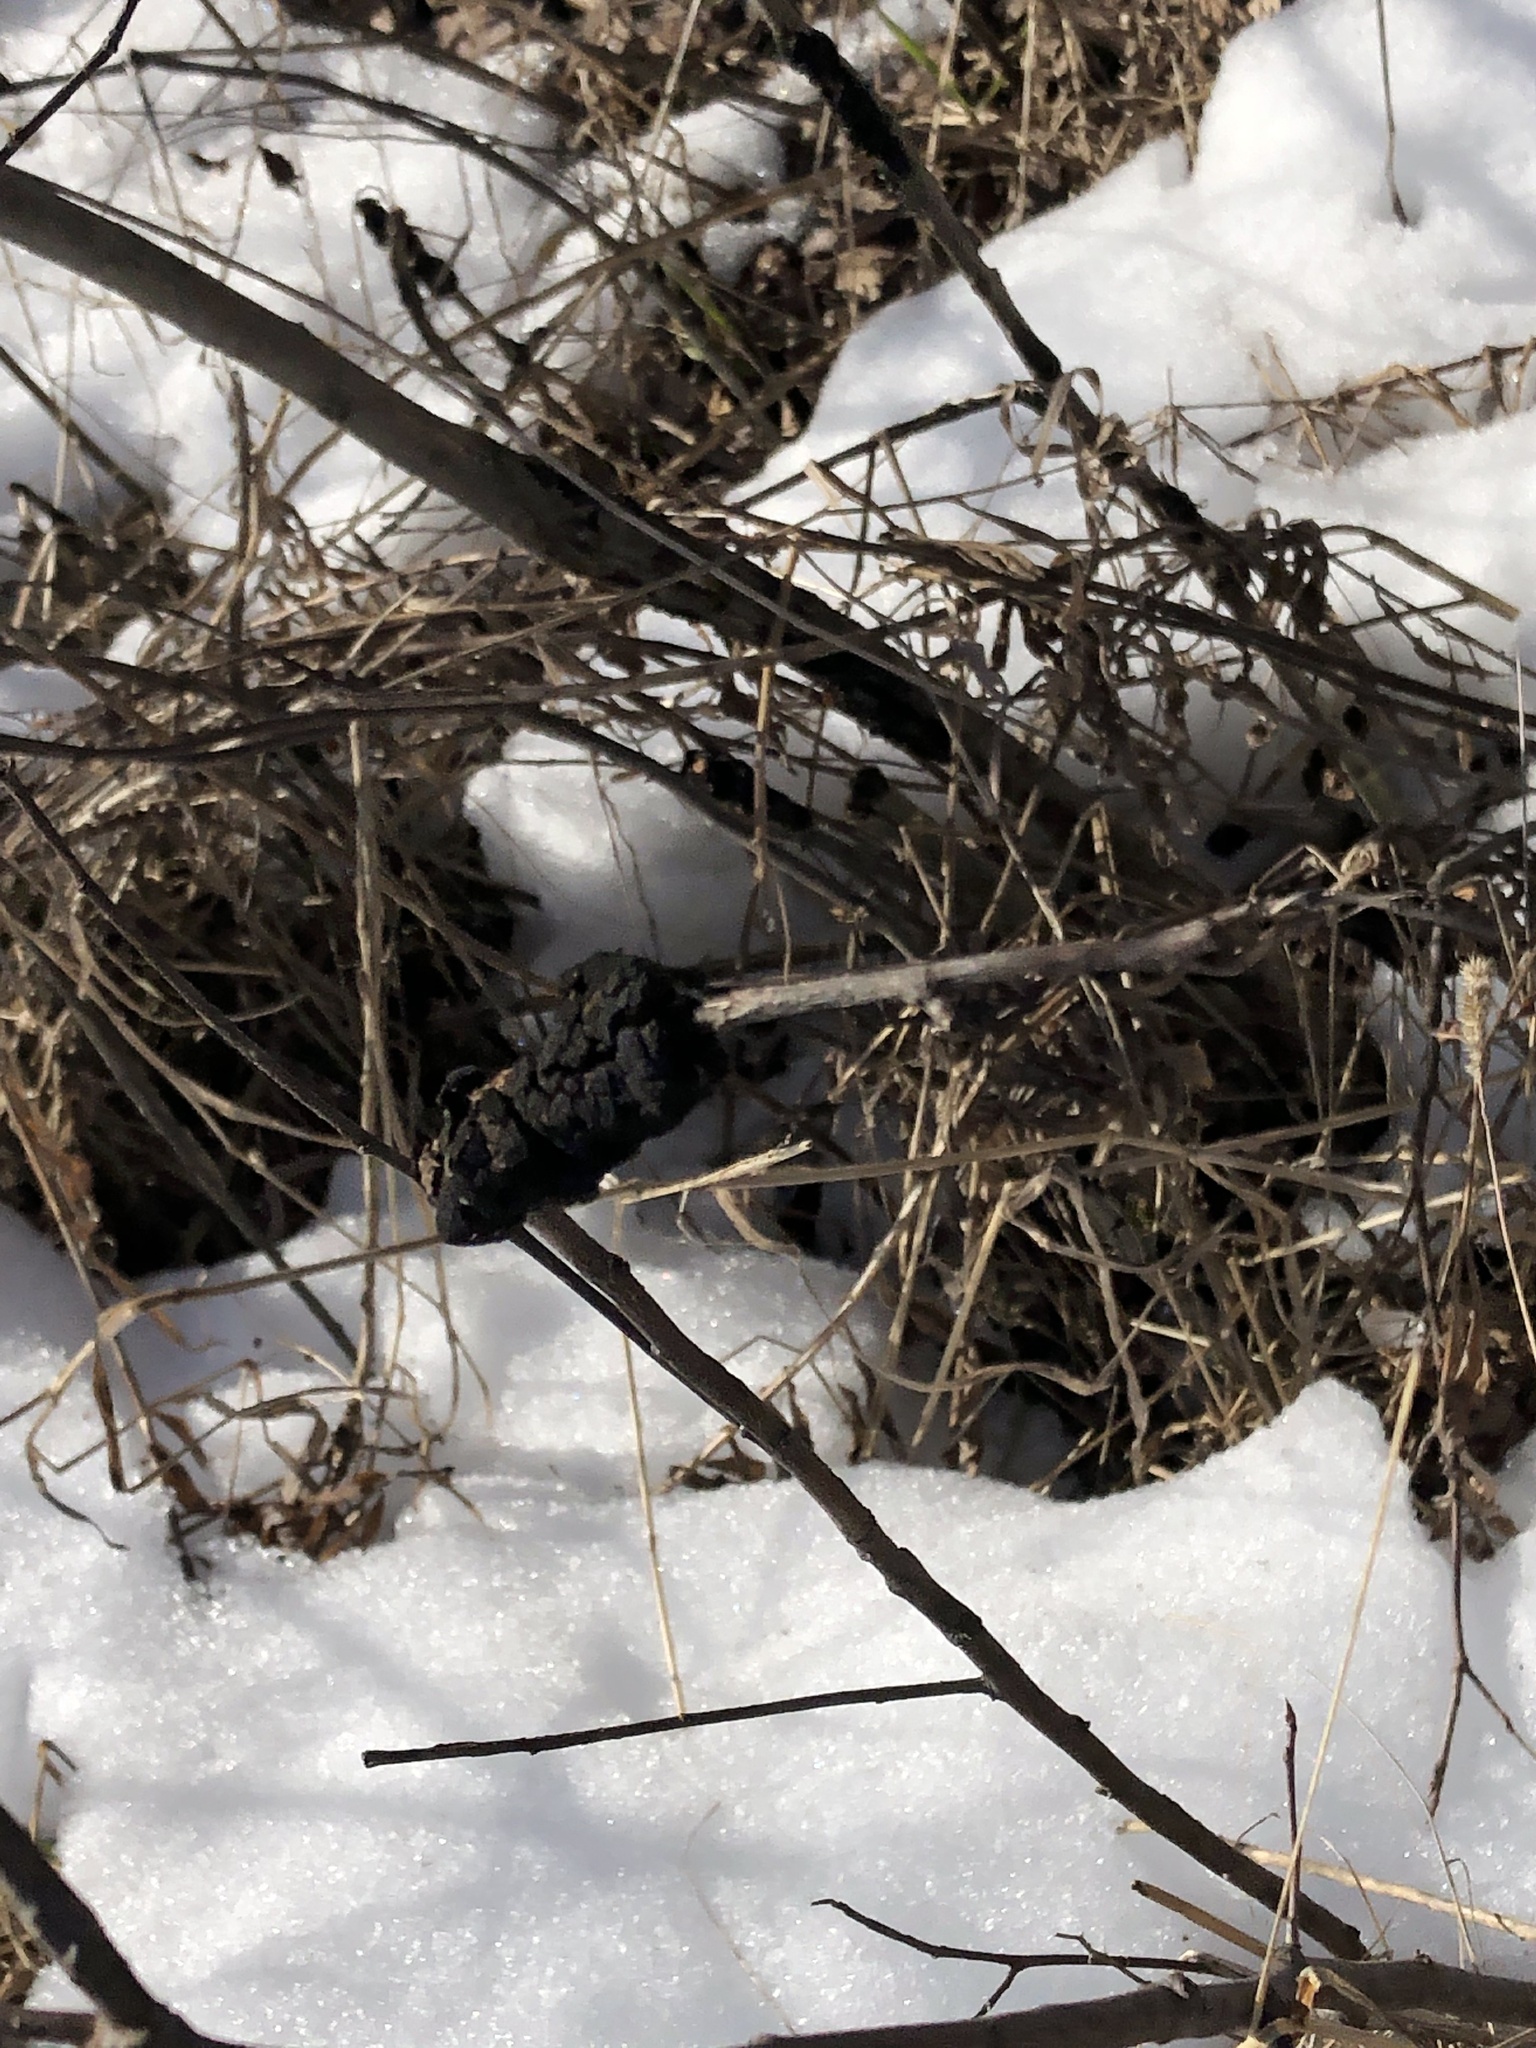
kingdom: Fungi
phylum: Ascomycota
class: Dothideomycetes
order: Venturiales
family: Venturiaceae
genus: Apiosporina
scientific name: Apiosporina morbosa
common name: Black knot
